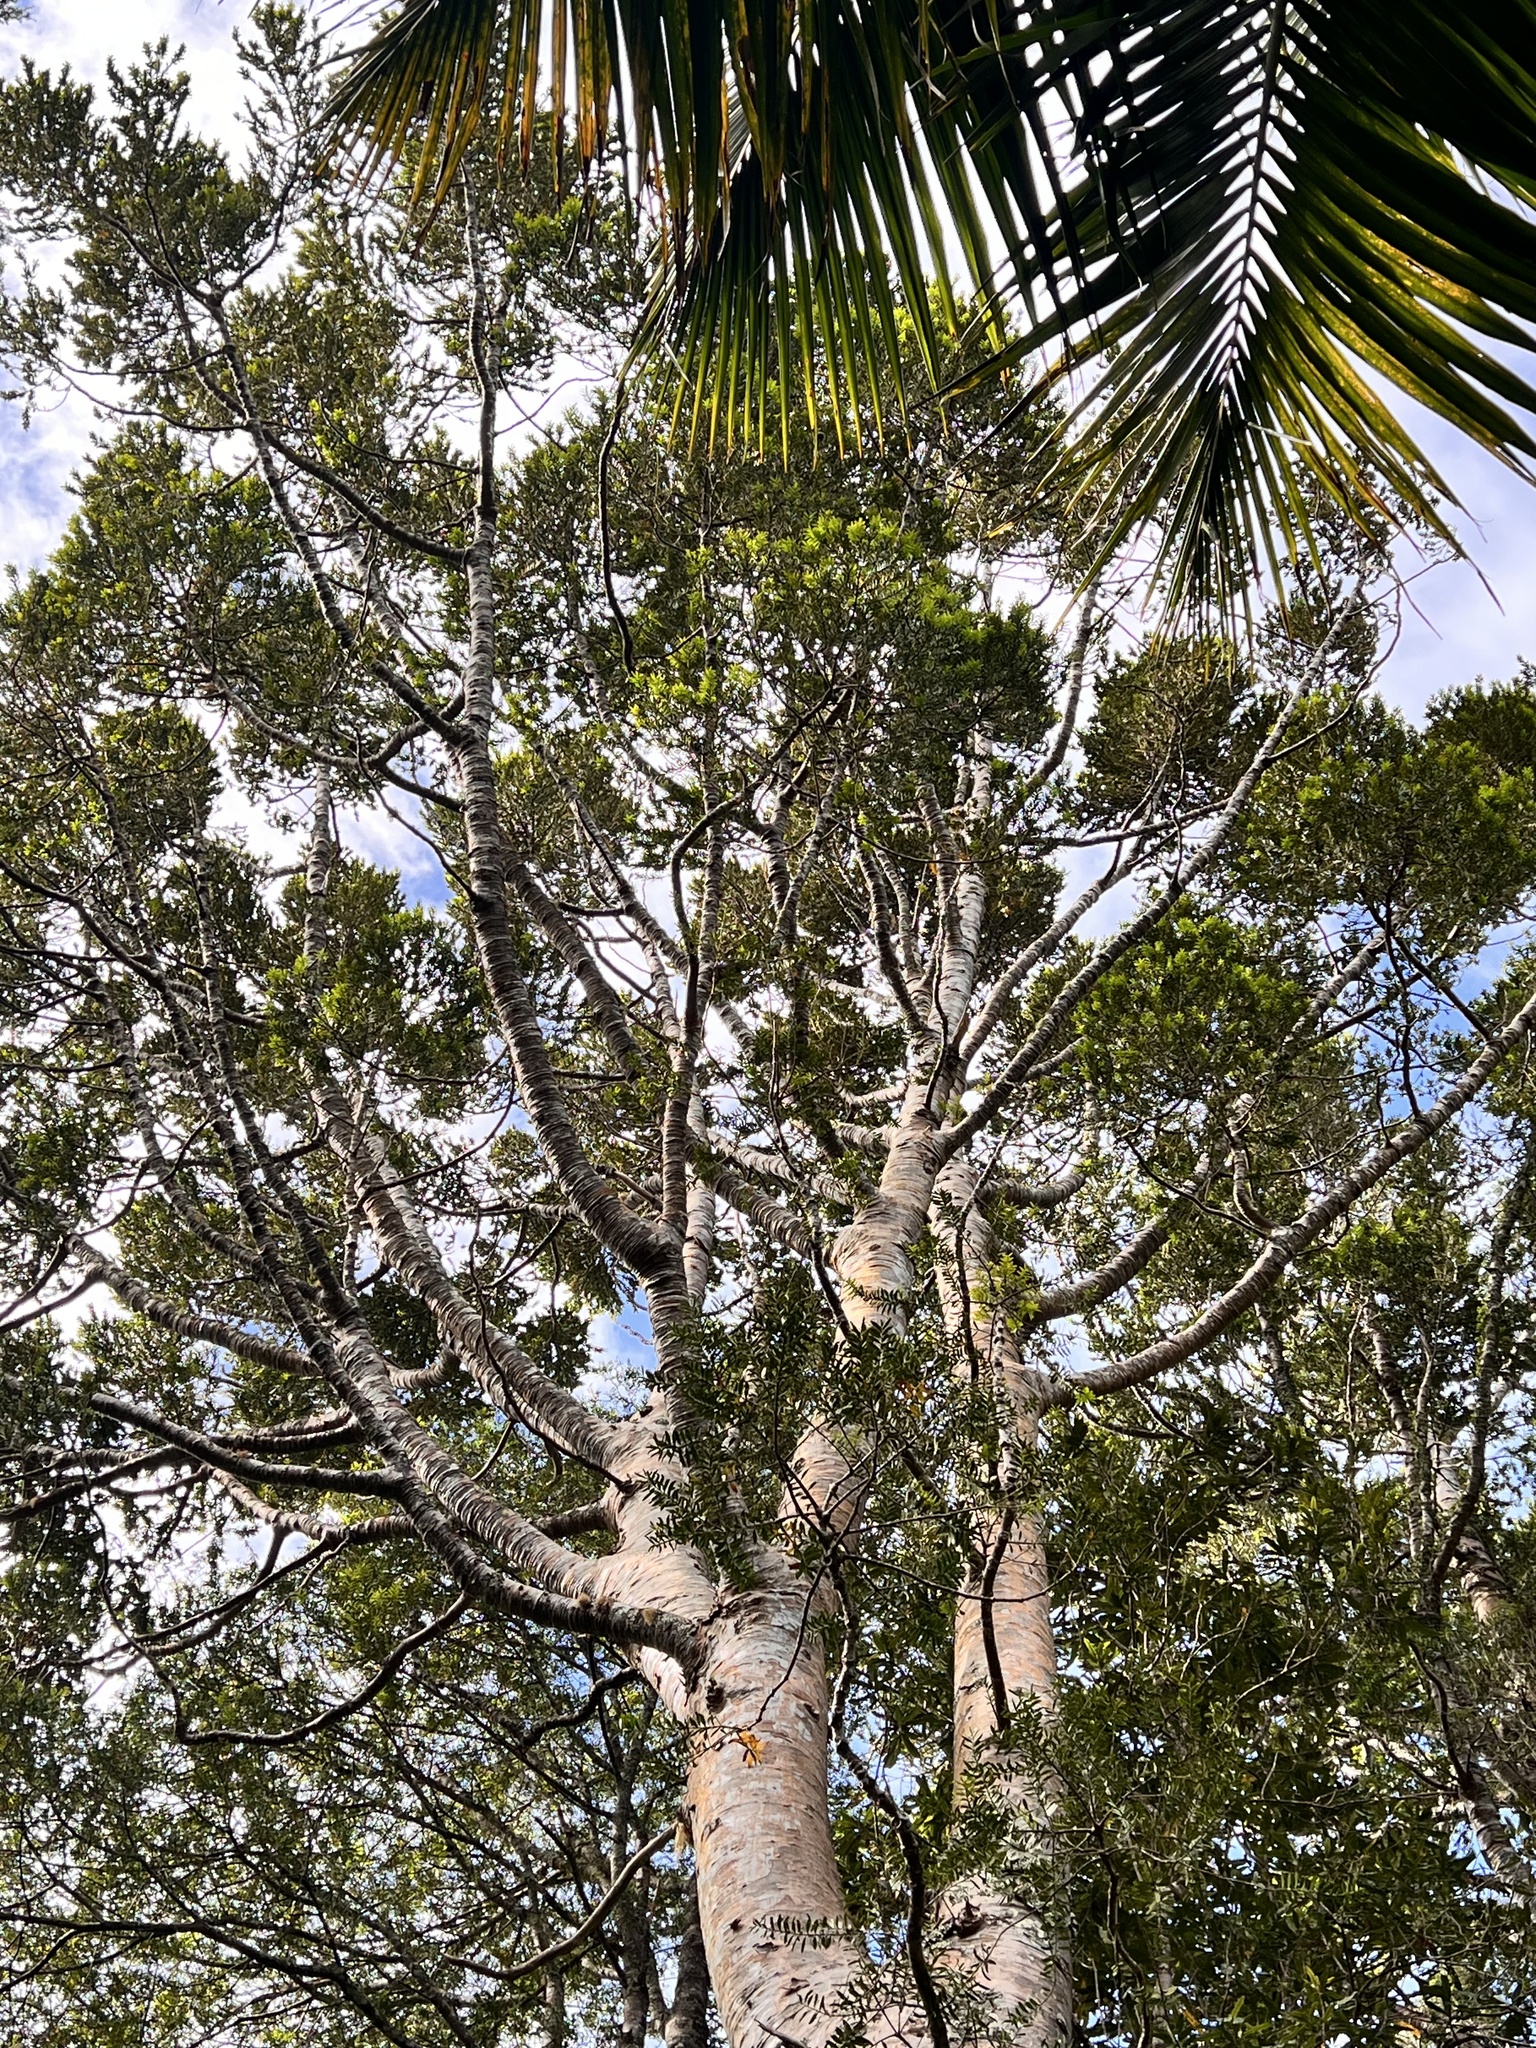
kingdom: Plantae
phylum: Tracheophyta
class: Pinopsida
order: Pinales
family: Araucariaceae
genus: Agathis
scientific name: Agathis australis
